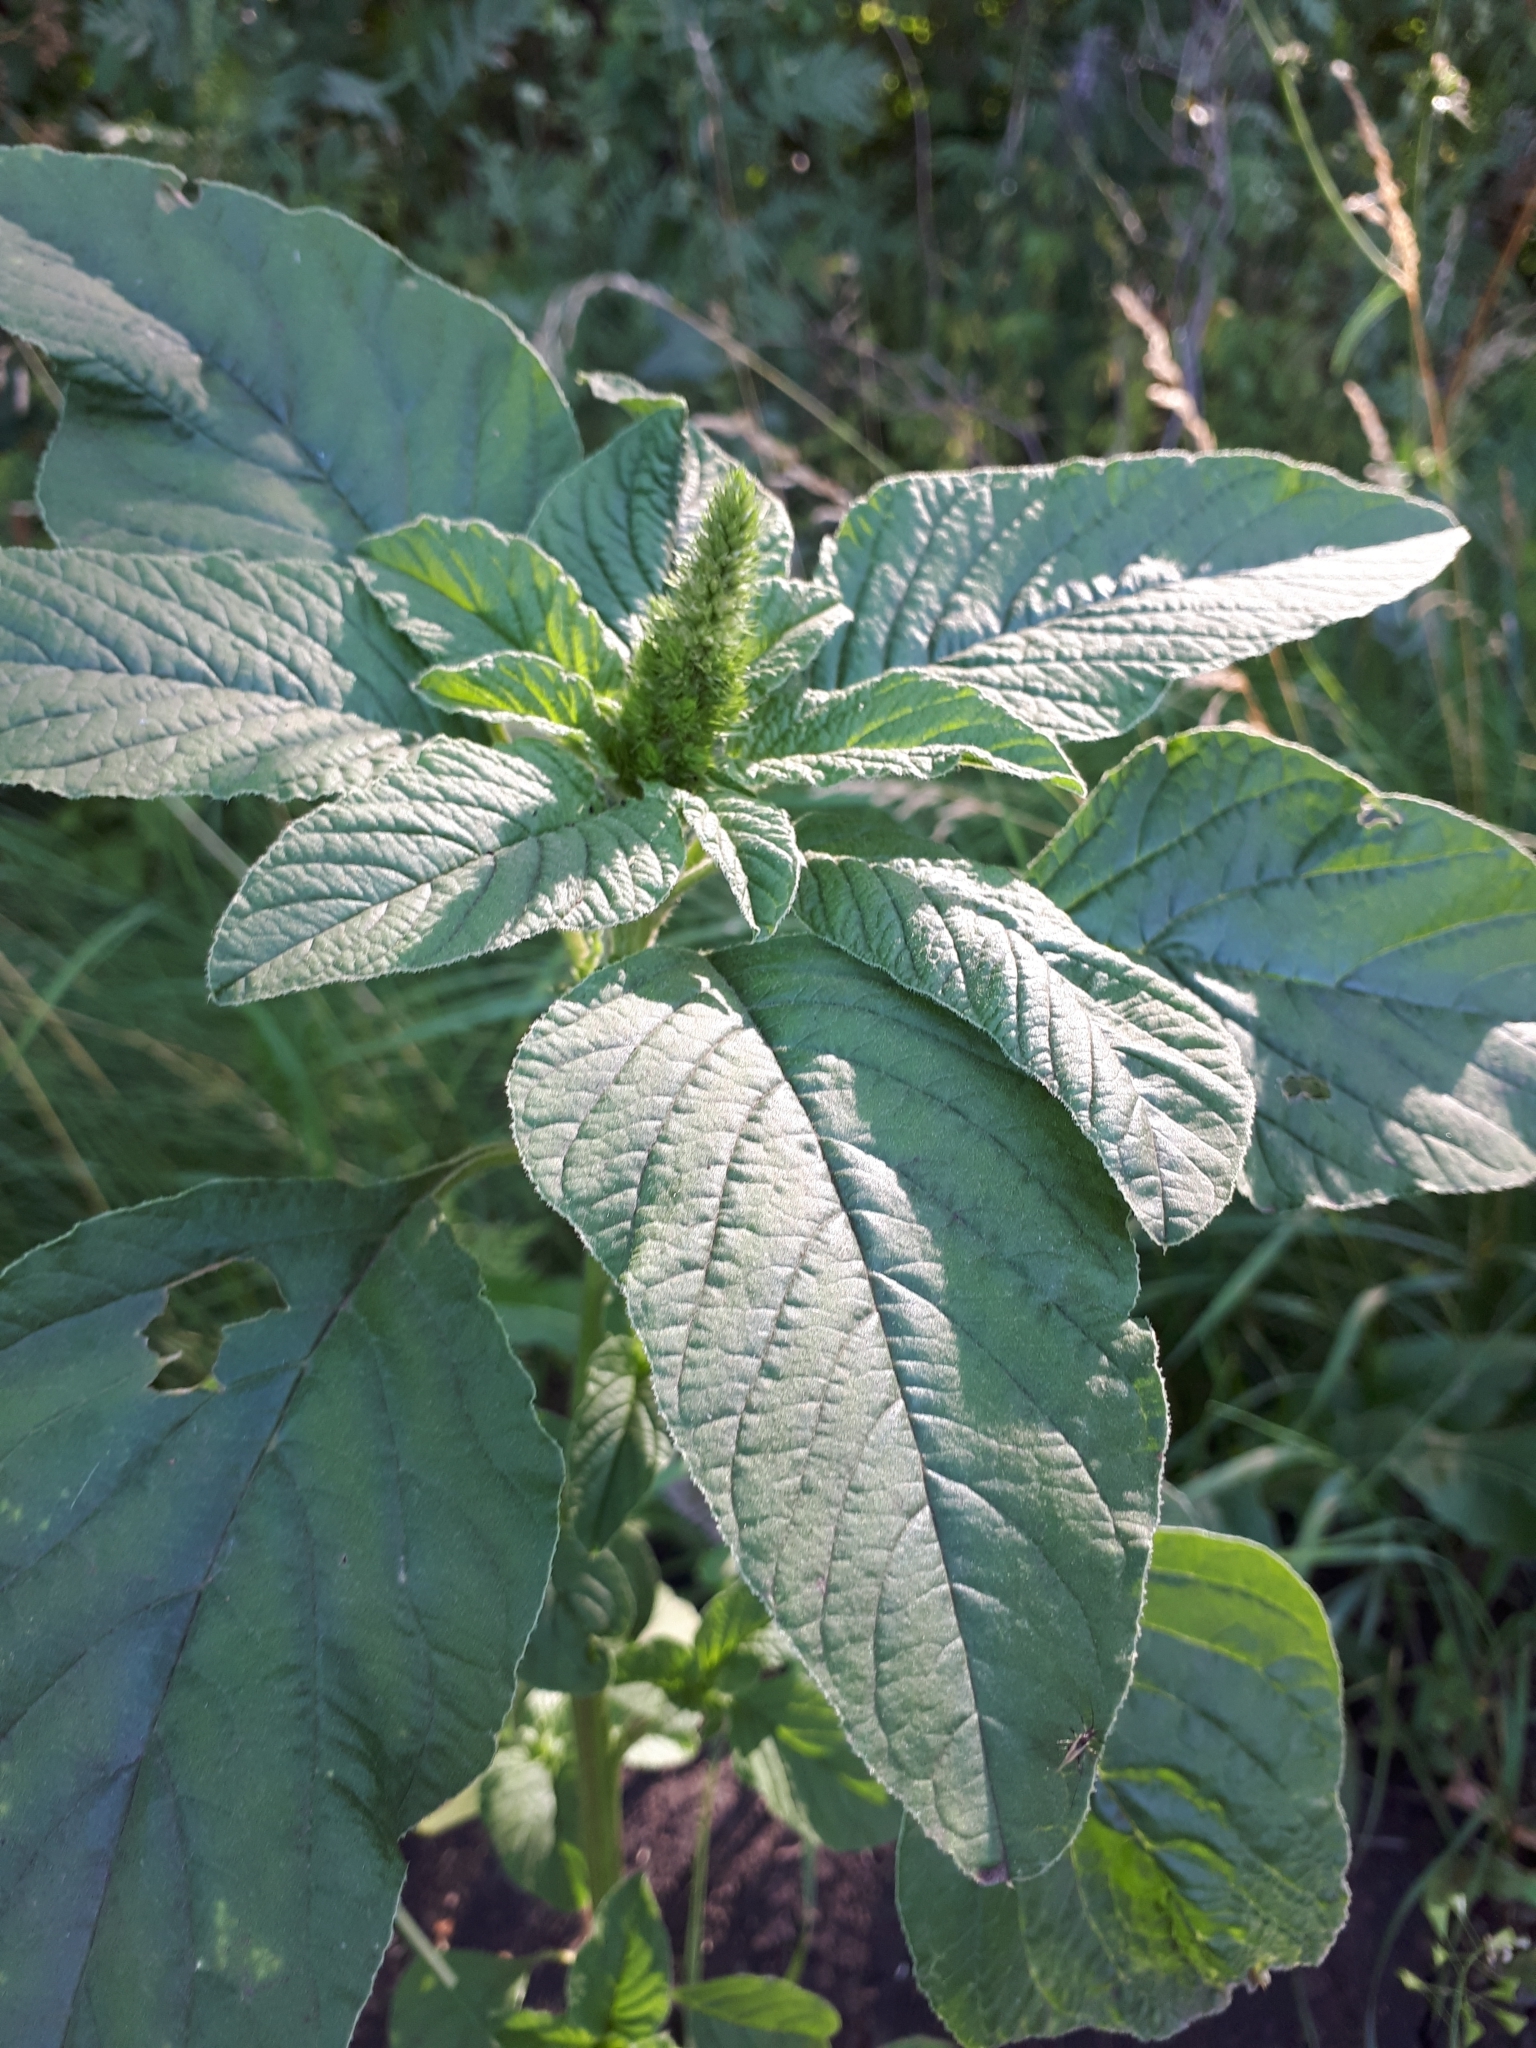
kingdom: Plantae
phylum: Tracheophyta
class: Magnoliopsida
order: Caryophyllales
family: Amaranthaceae
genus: Amaranthus
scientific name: Amaranthus retroflexus
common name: Redroot amaranth
